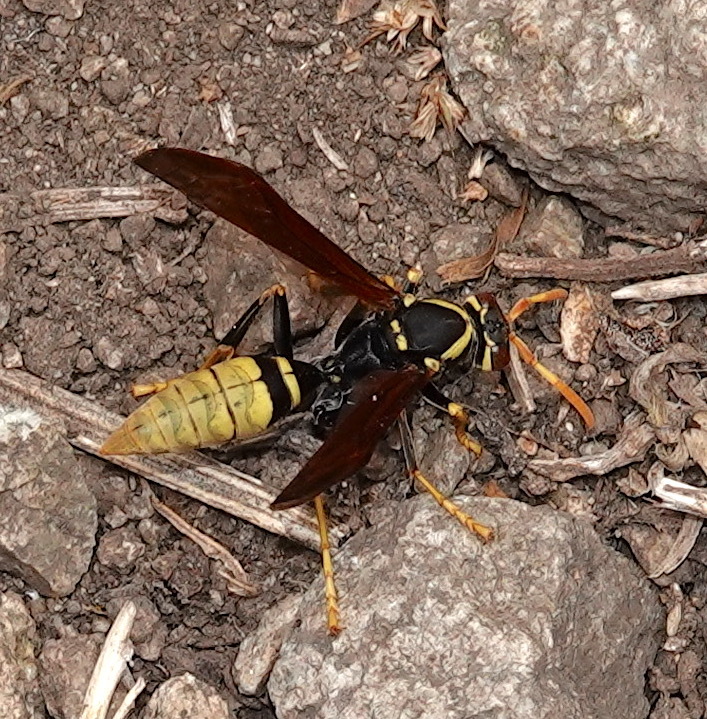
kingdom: Animalia
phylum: Arthropoda
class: Insecta
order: Hymenoptera
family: Eumenidae
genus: Polistes
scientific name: Polistes xanthogaster
